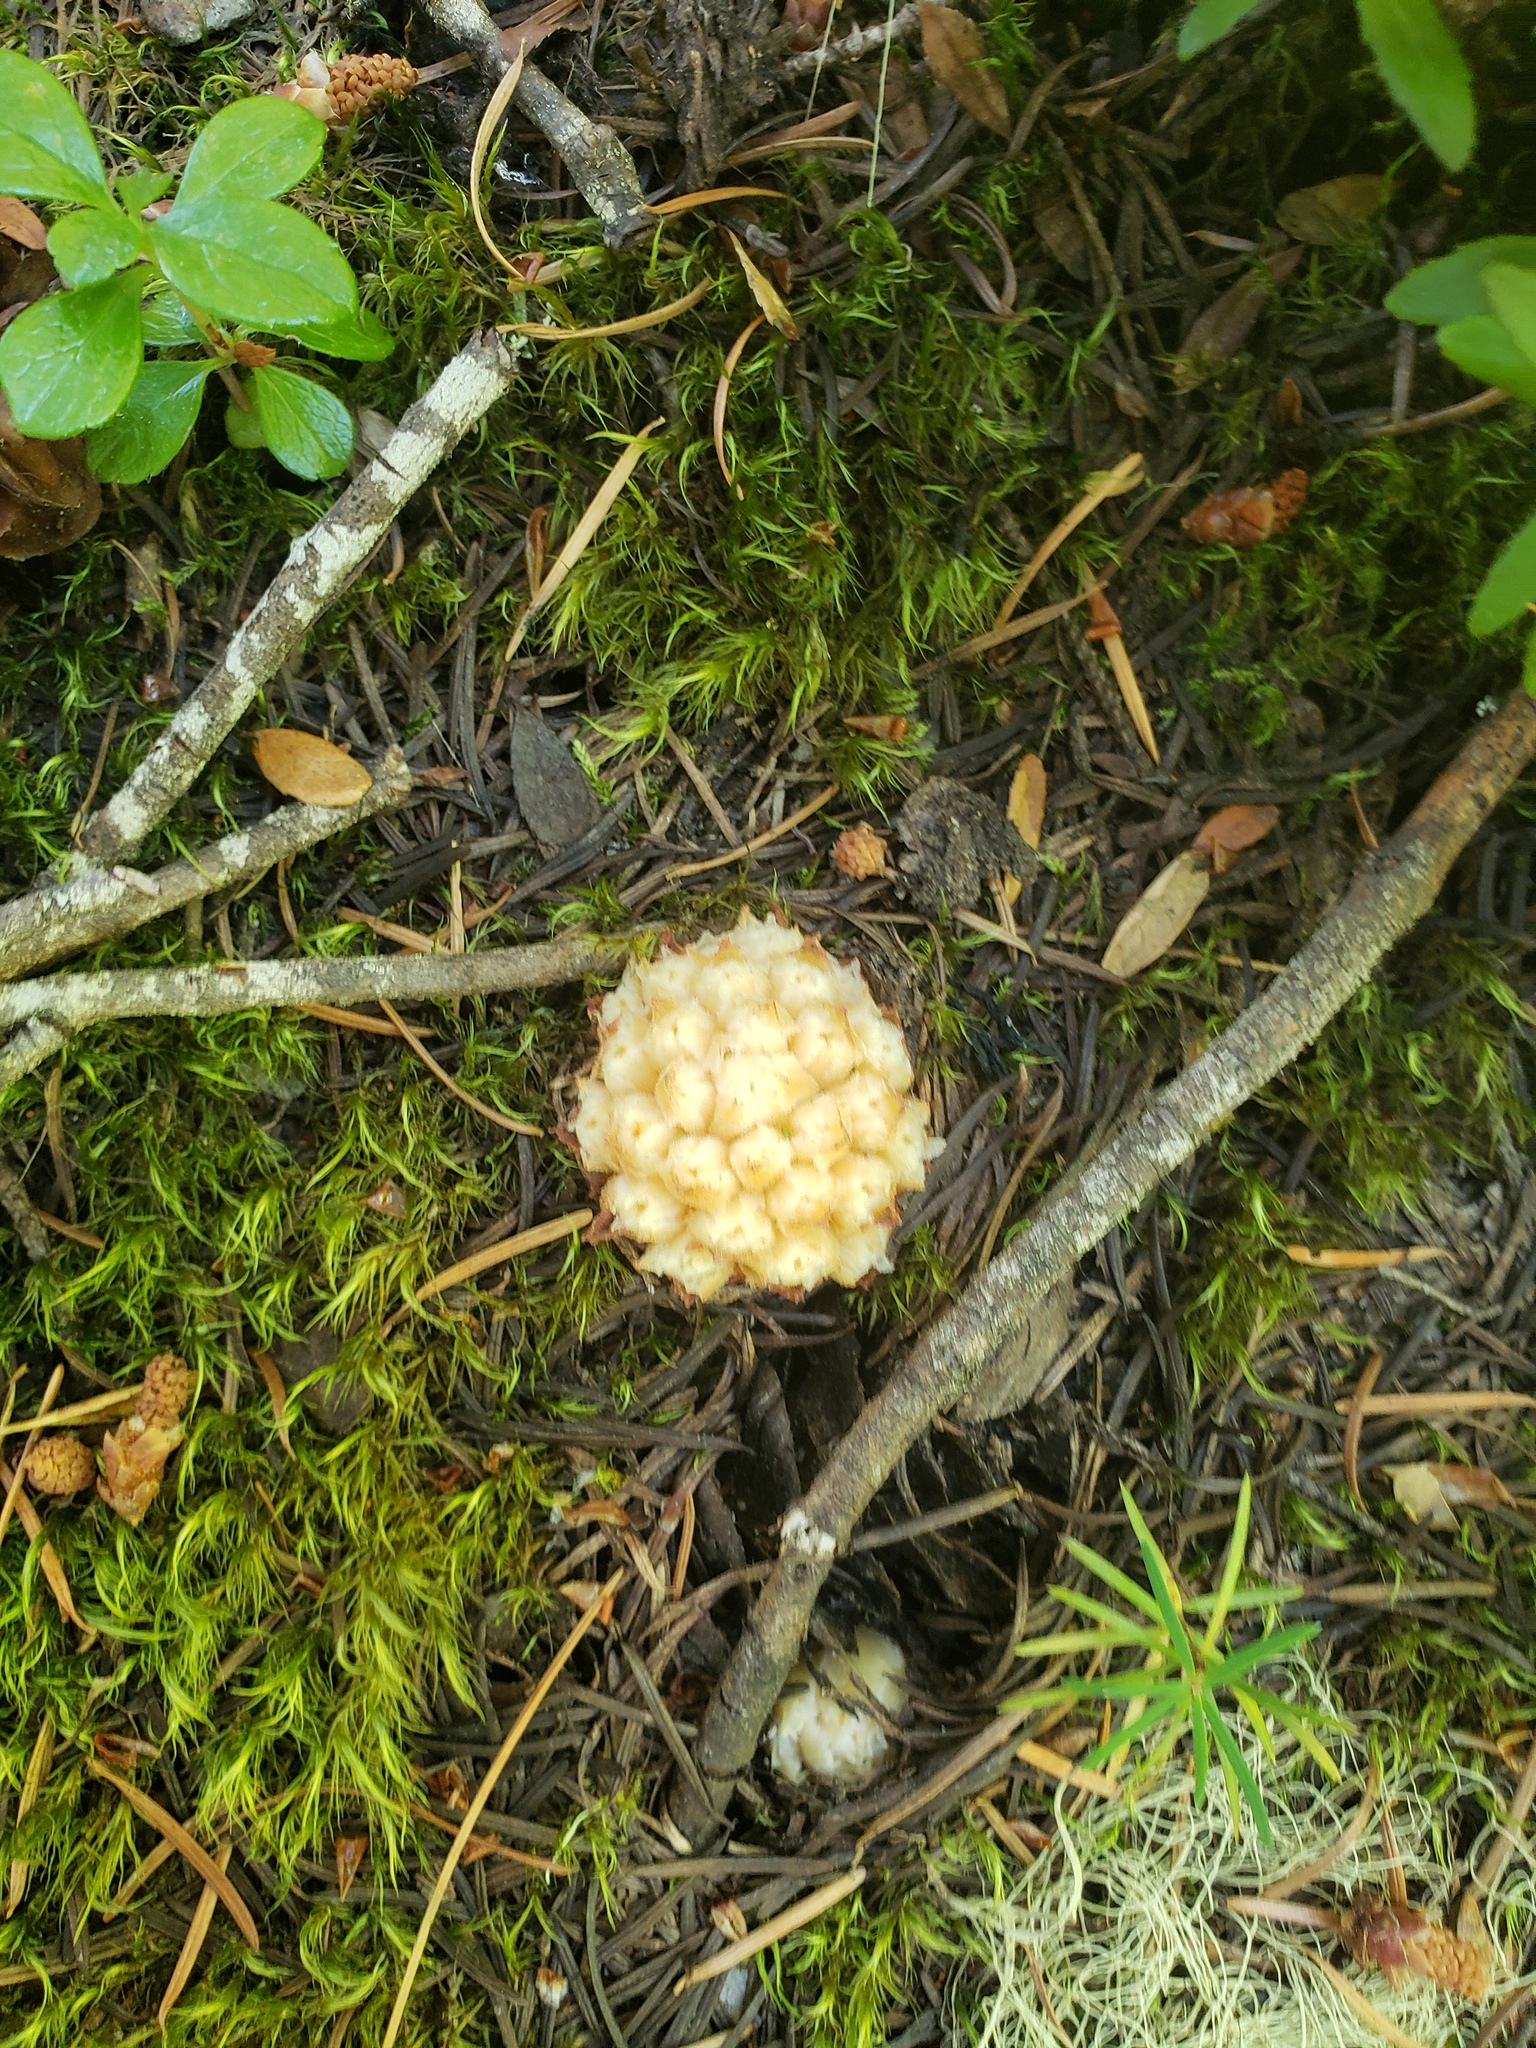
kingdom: Plantae
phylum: Tracheophyta
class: Magnoliopsida
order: Ericales
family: Ericaceae
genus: Hemitomes
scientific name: Hemitomes congestum
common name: Cone plant
